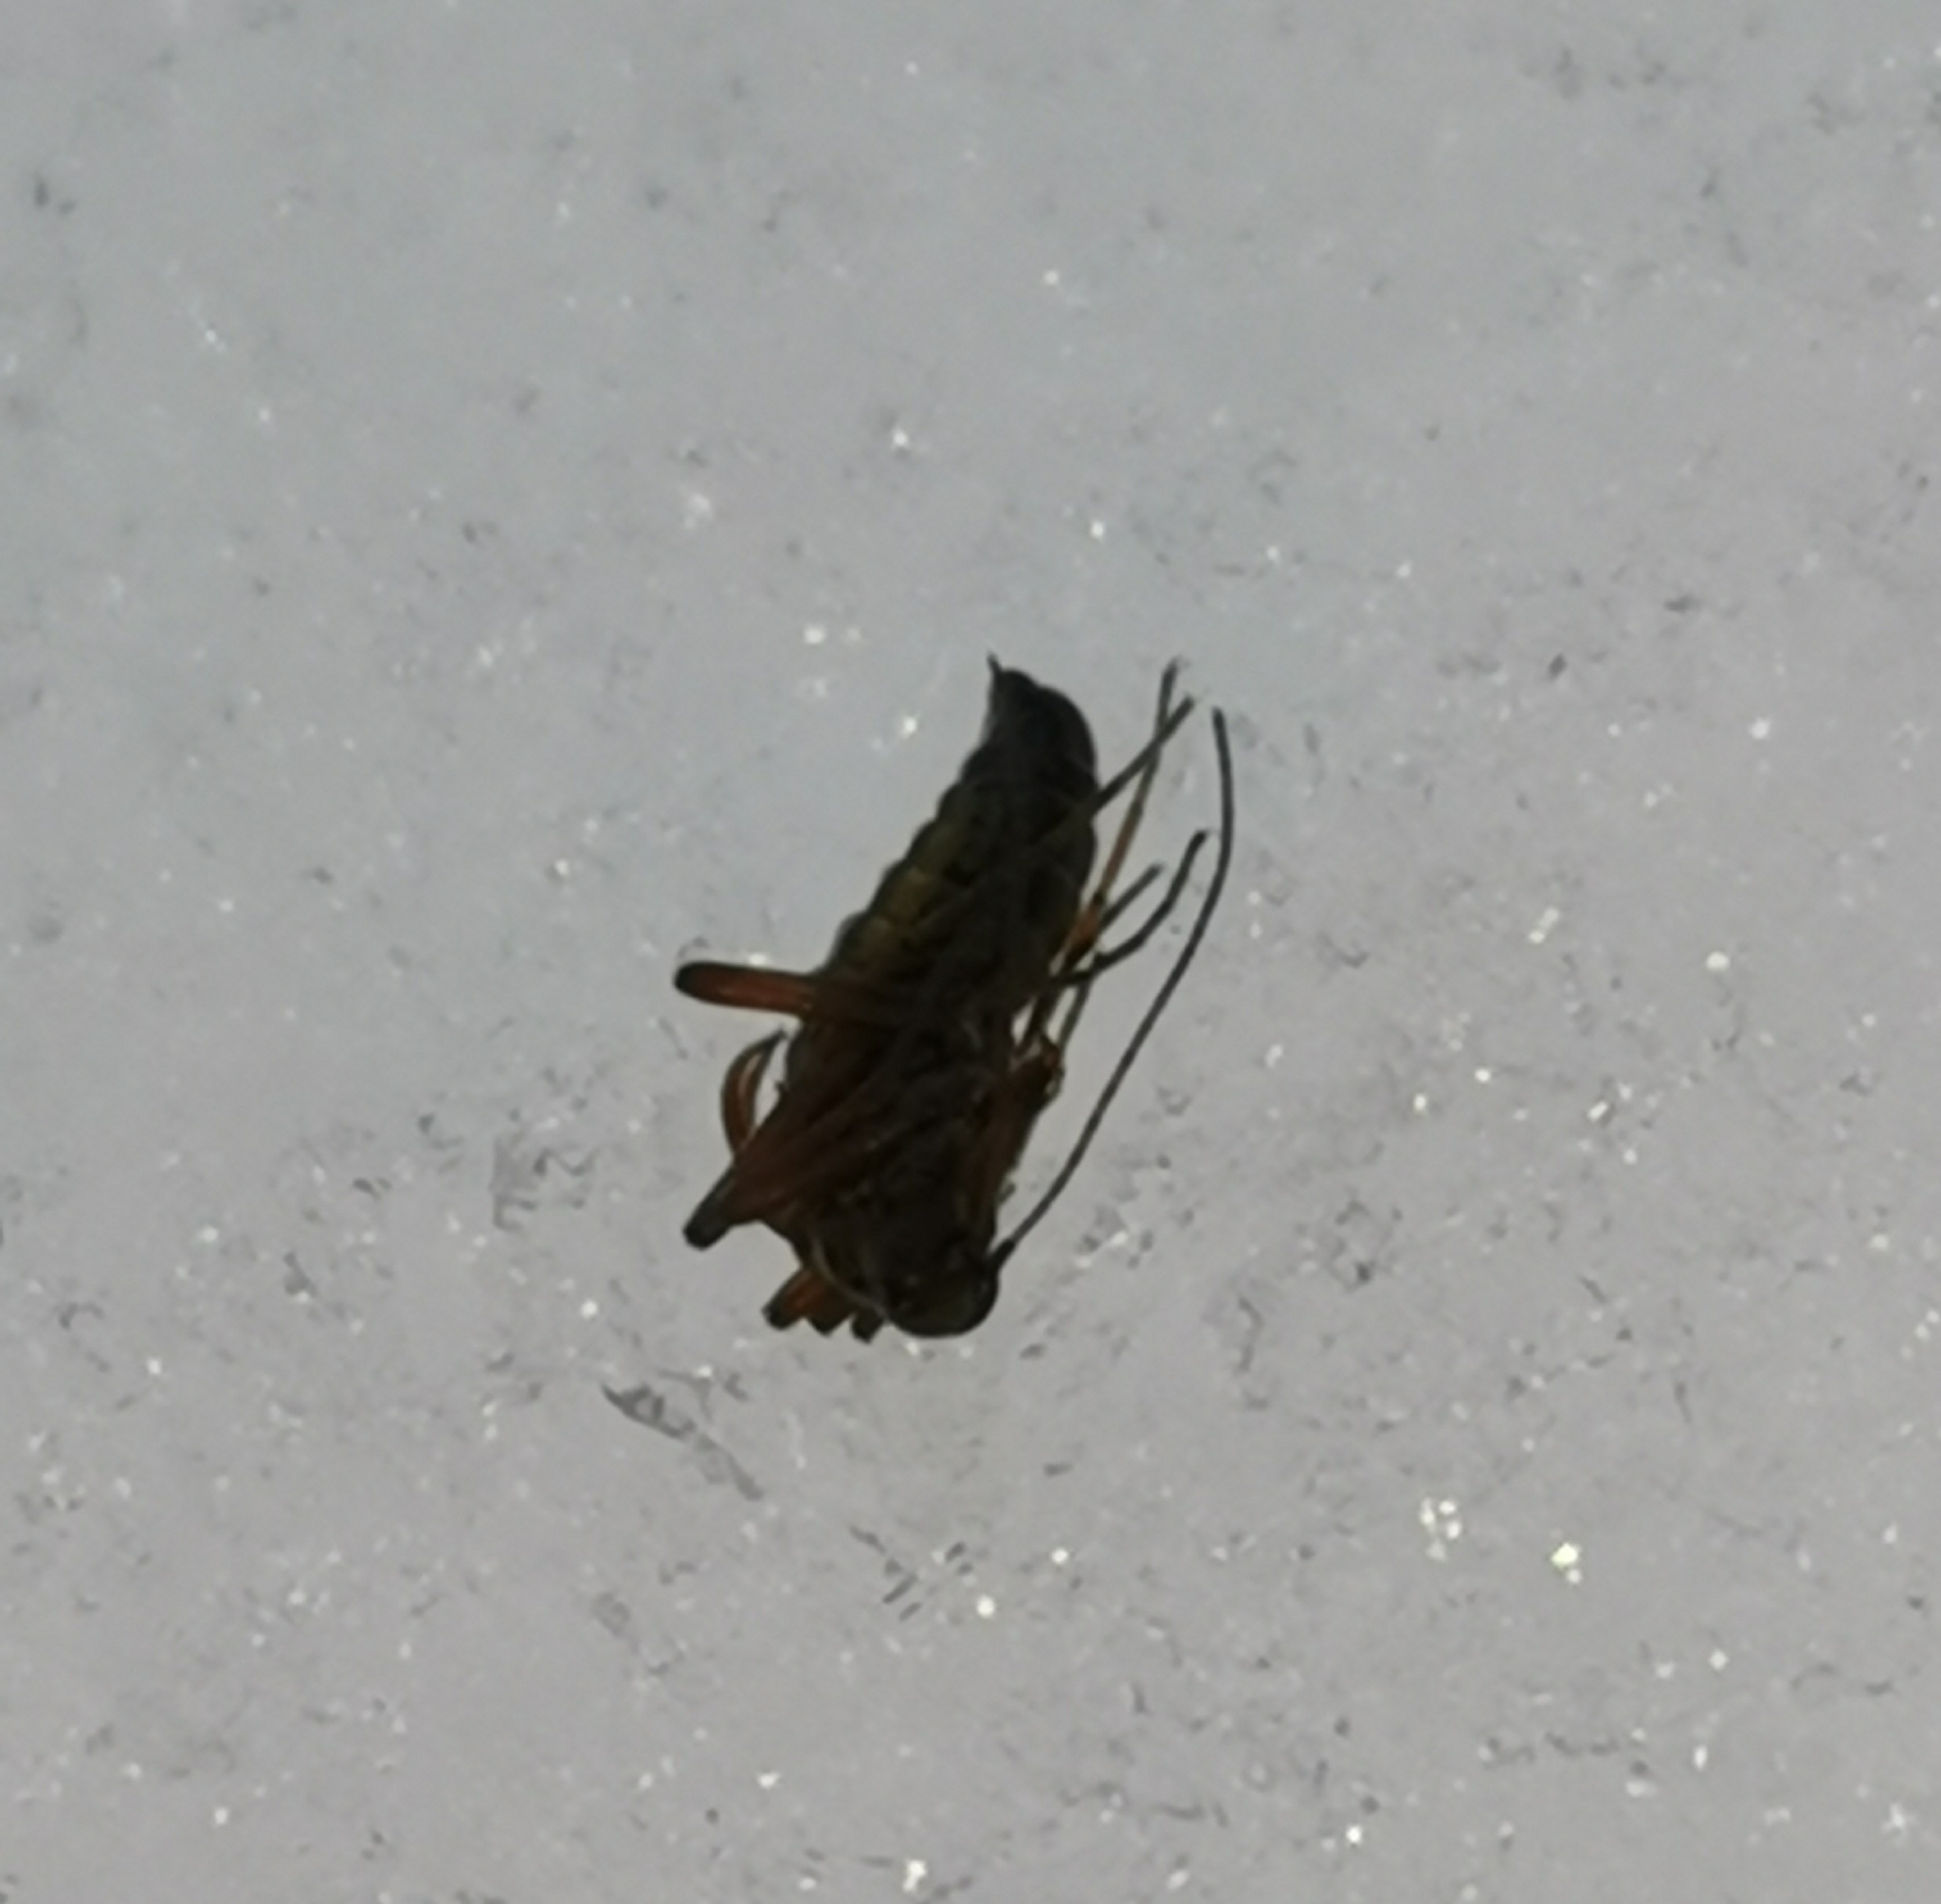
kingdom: Animalia
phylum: Arthropoda
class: Insecta
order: Mecoptera
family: Boreidae
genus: Boreus
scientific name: Boreus westwoodi
